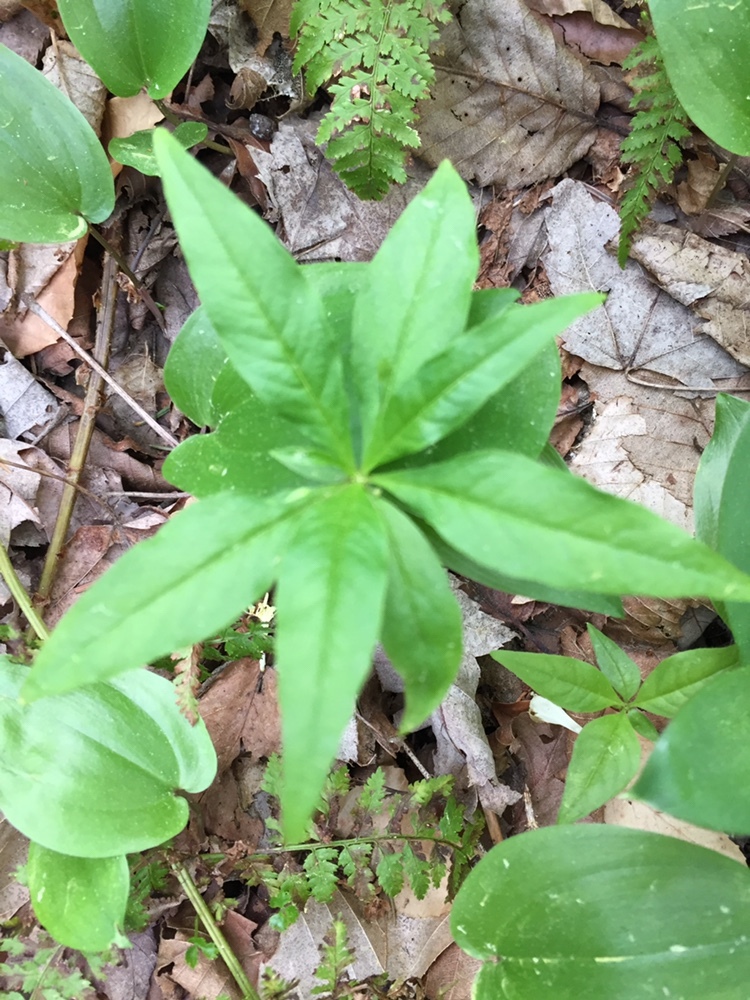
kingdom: Plantae
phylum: Tracheophyta
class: Magnoliopsida
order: Ericales
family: Primulaceae
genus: Lysimachia
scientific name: Lysimachia borealis
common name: American starflower
